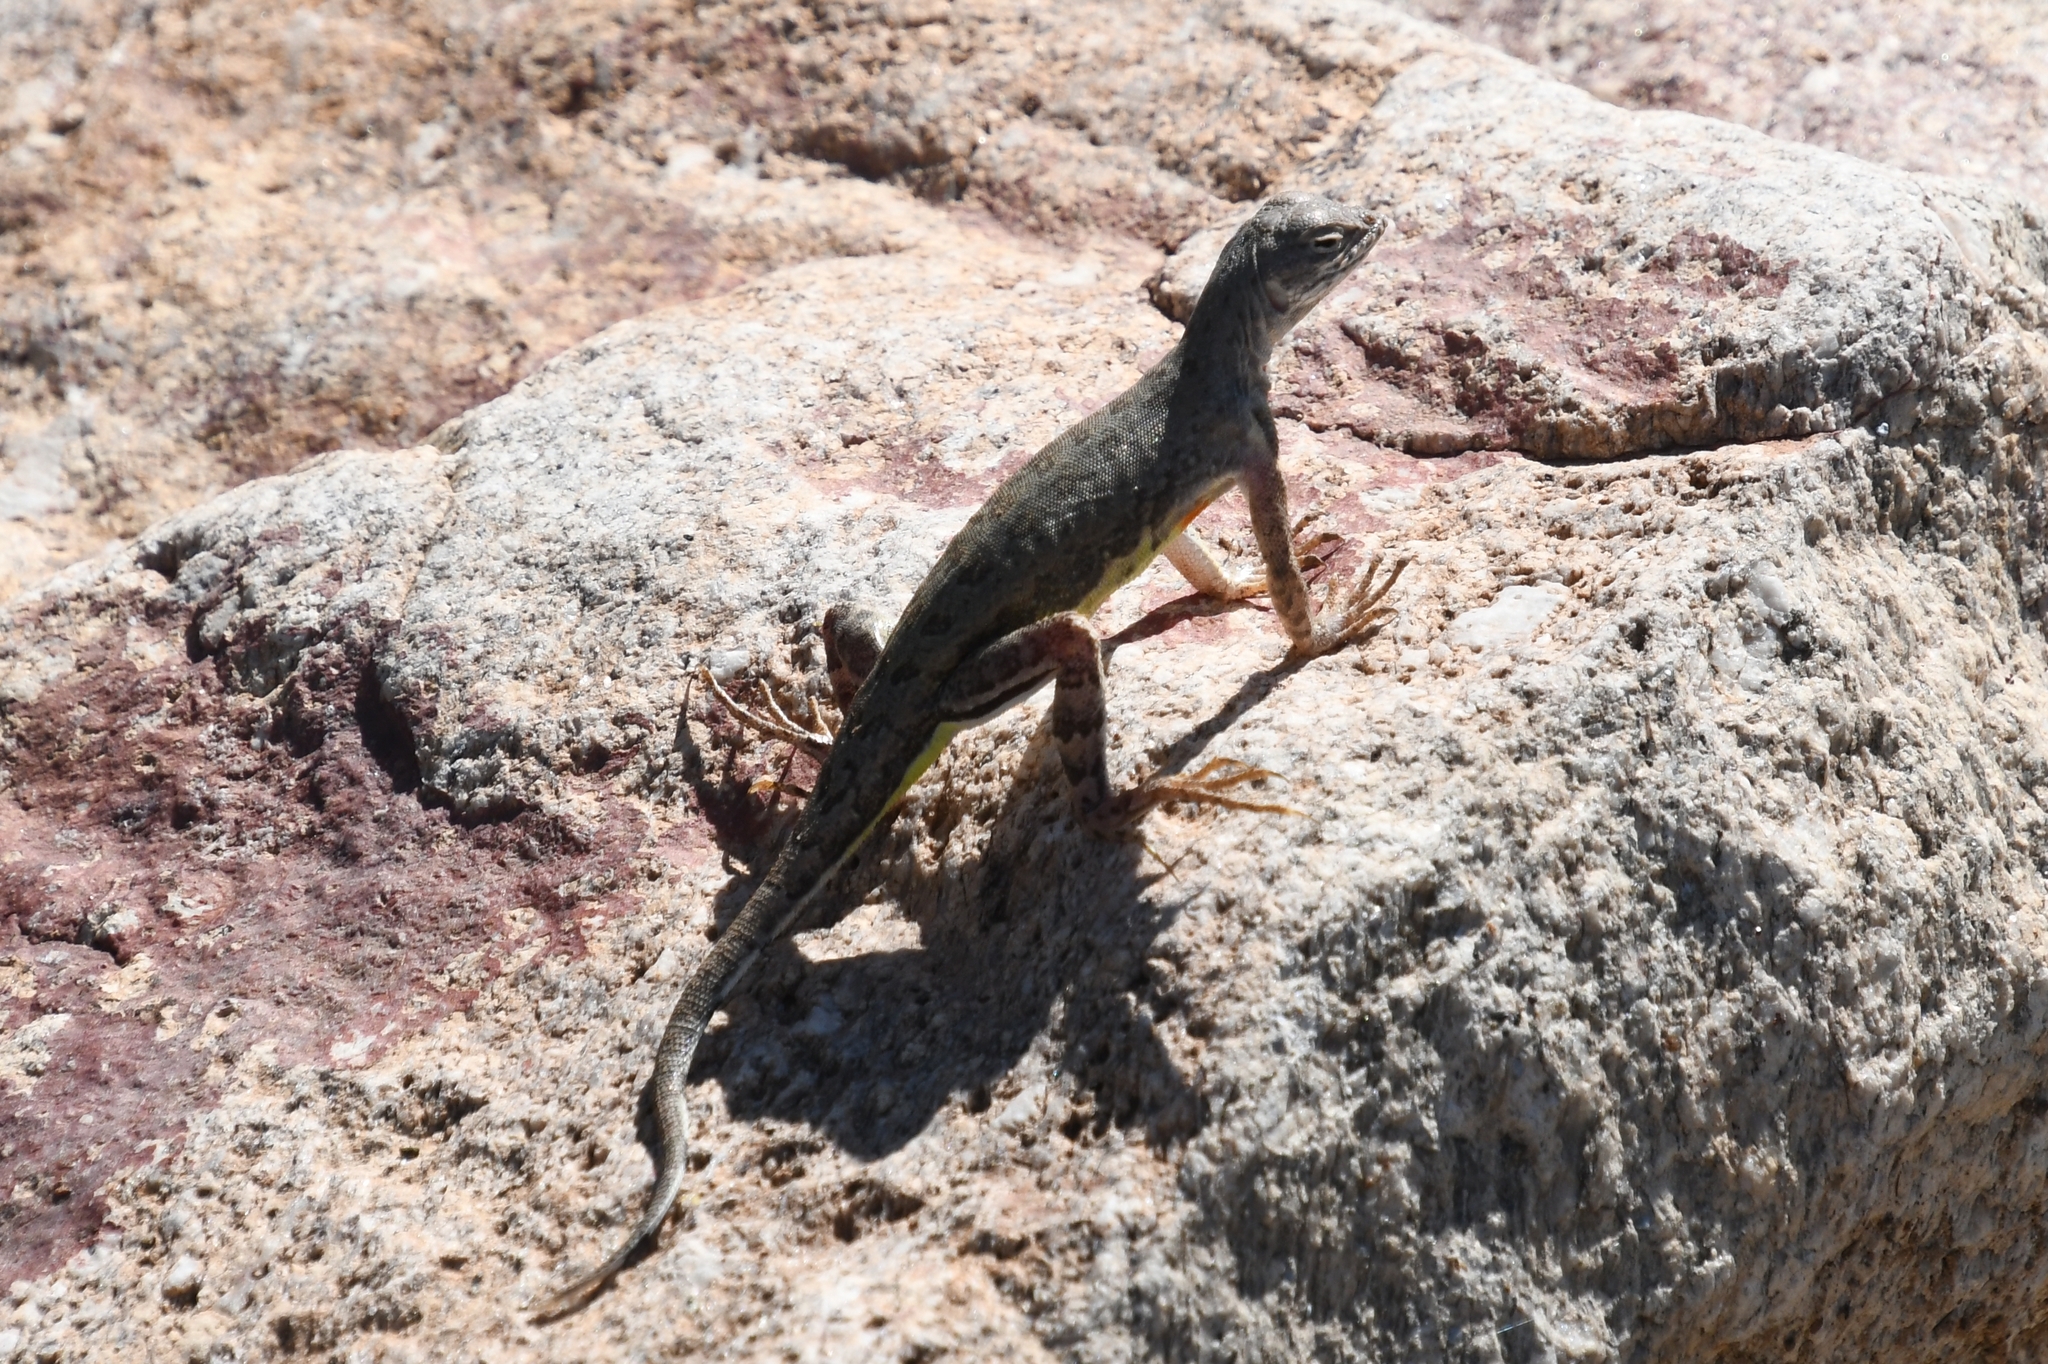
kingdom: Animalia
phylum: Chordata
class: Squamata
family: Phrynosomatidae
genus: Callisaurus
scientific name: Callisaurus draconoides
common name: Zebra-tailed lizard
